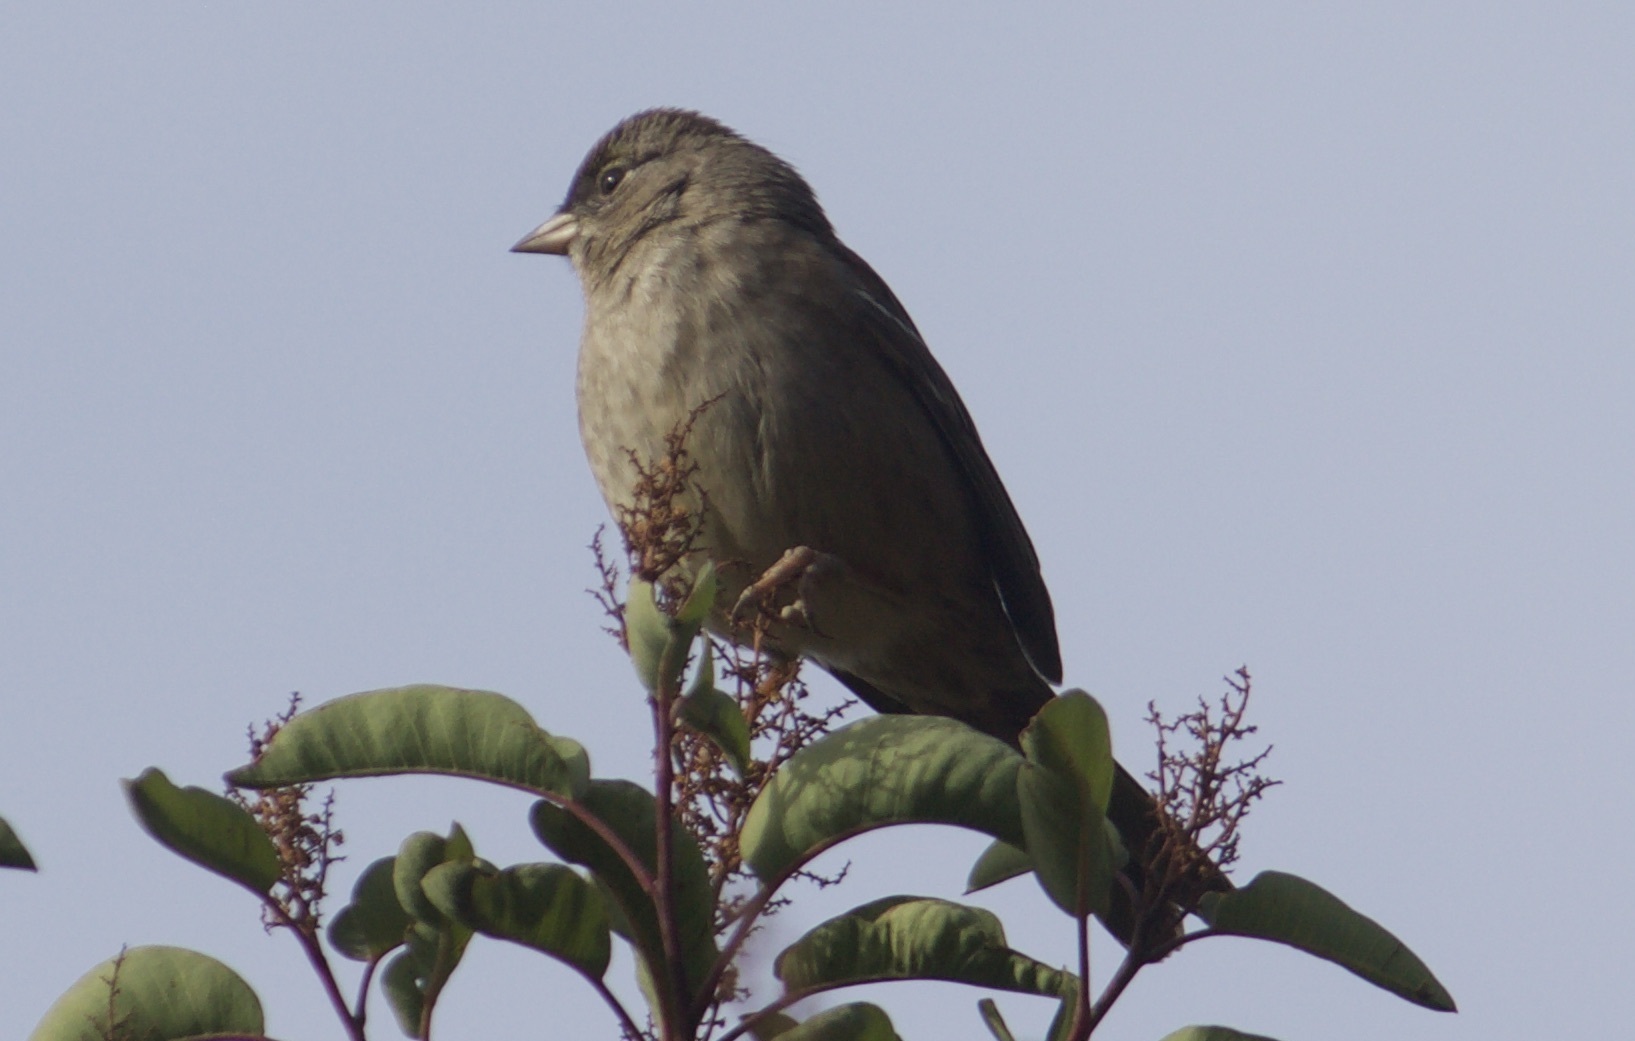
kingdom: Animalia
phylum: Chordata
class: Aves
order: Passeriformes
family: Passerellidae
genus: Zonotrichia
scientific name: Zonotrichia atricapilla
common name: Golden-crowned sparrow
